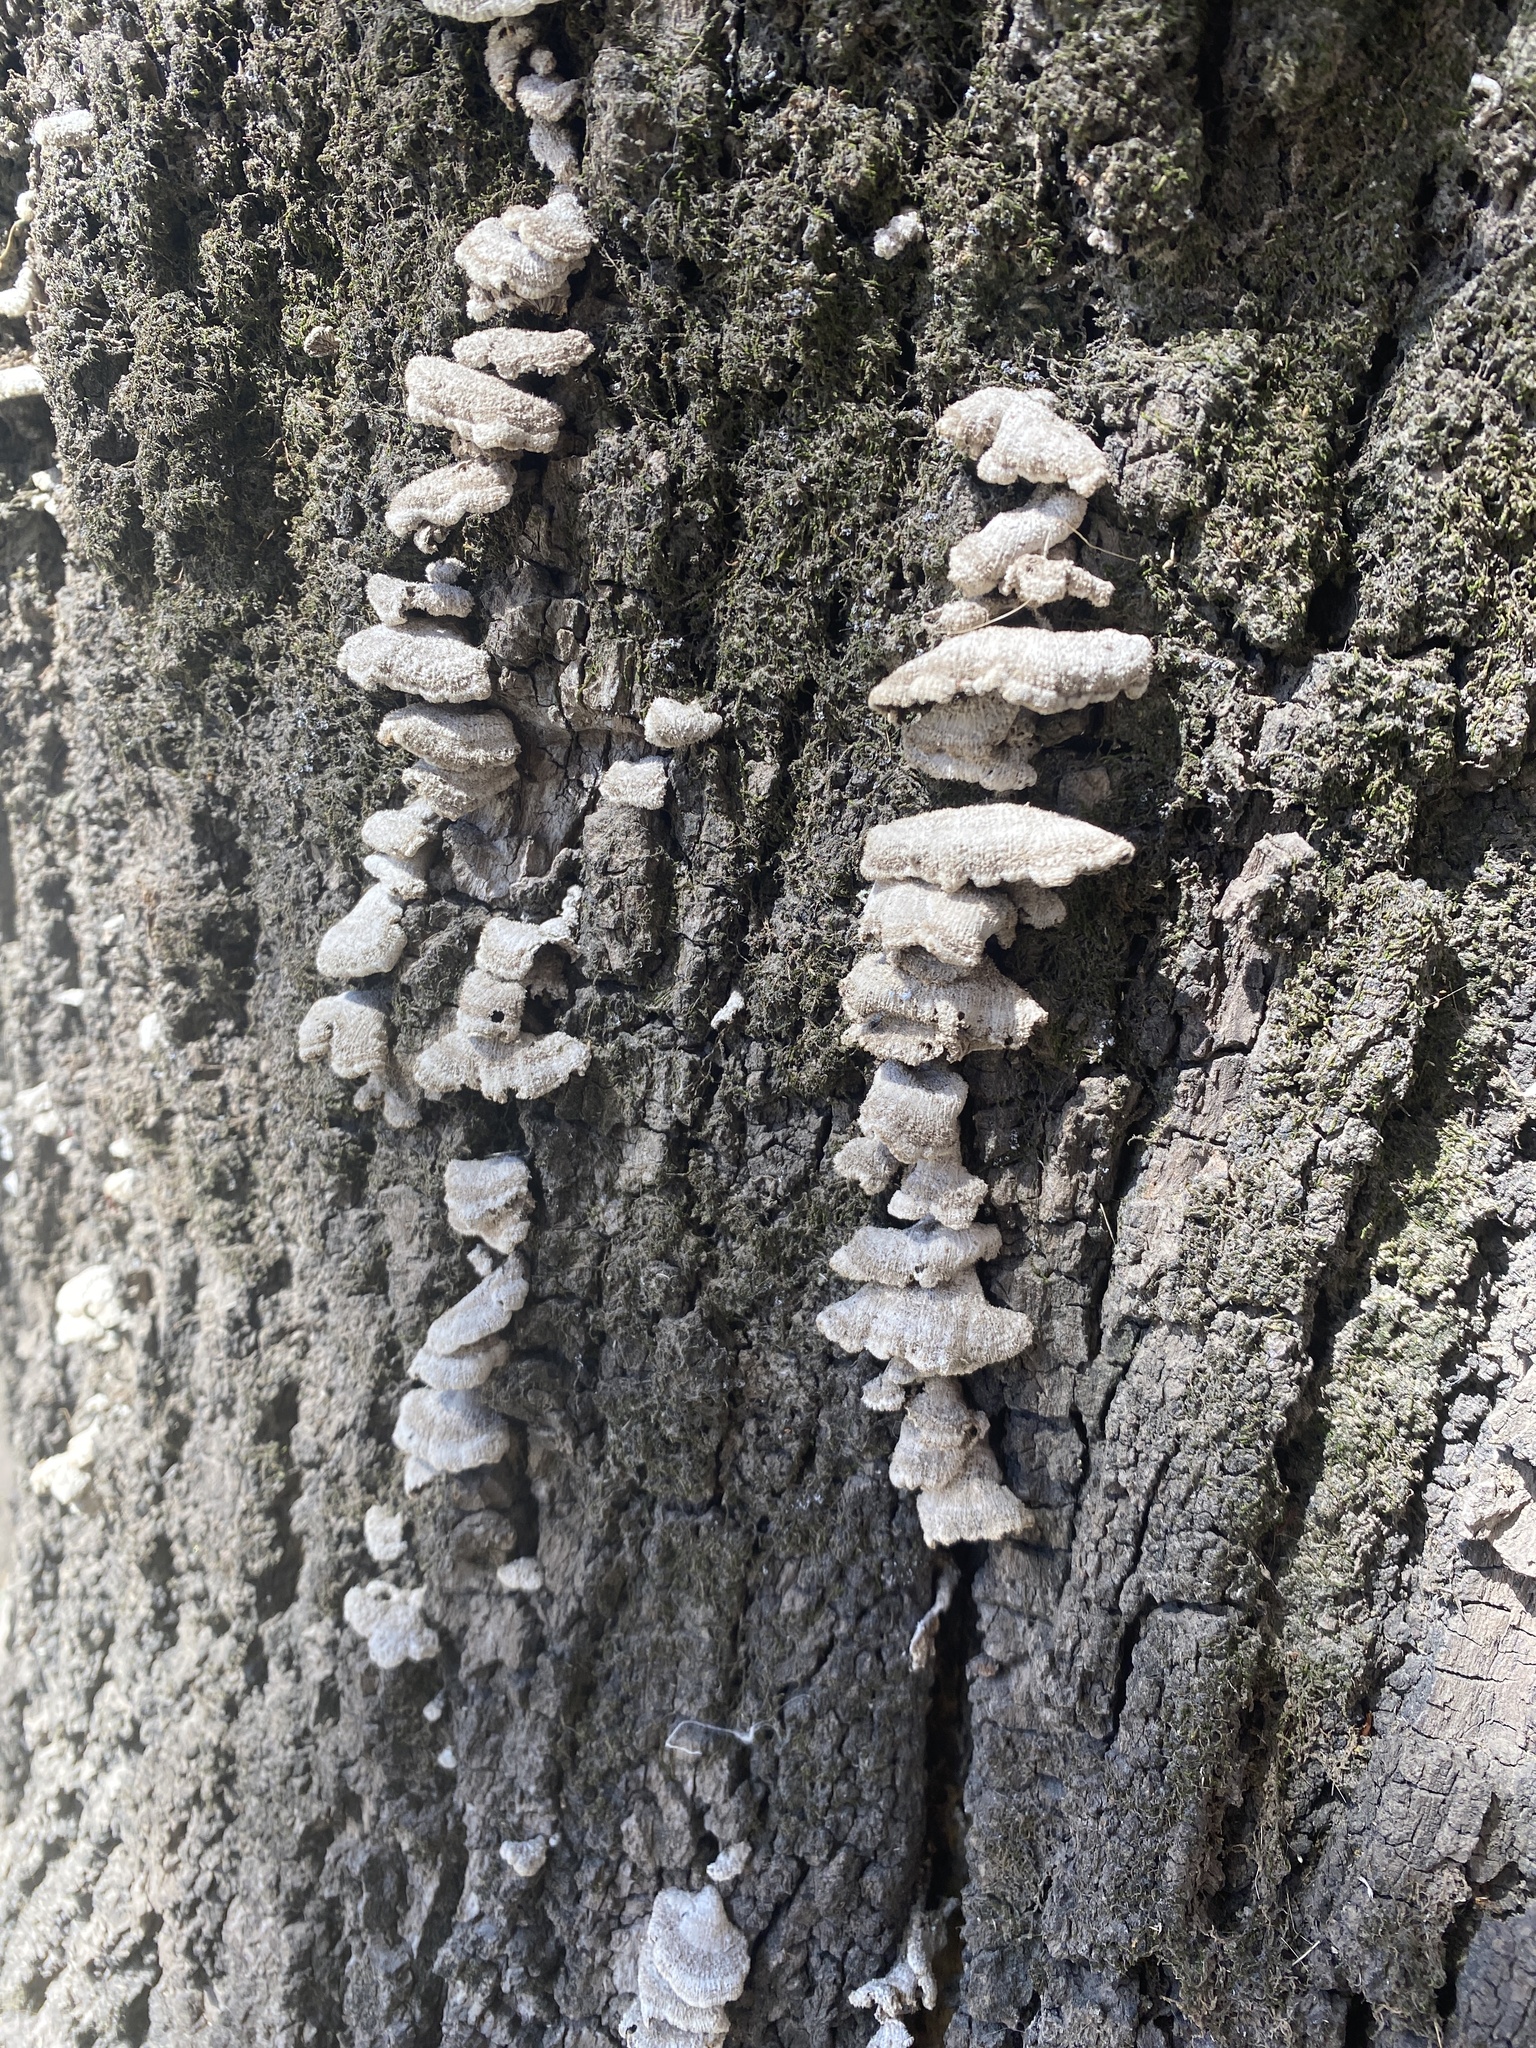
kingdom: Fungi
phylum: Basidiomycota
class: Agaricomycetes
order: Agaricales
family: Schizophyllaceae
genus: Schizophyllum
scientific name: Schizophyllum commune
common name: Common porecrust
